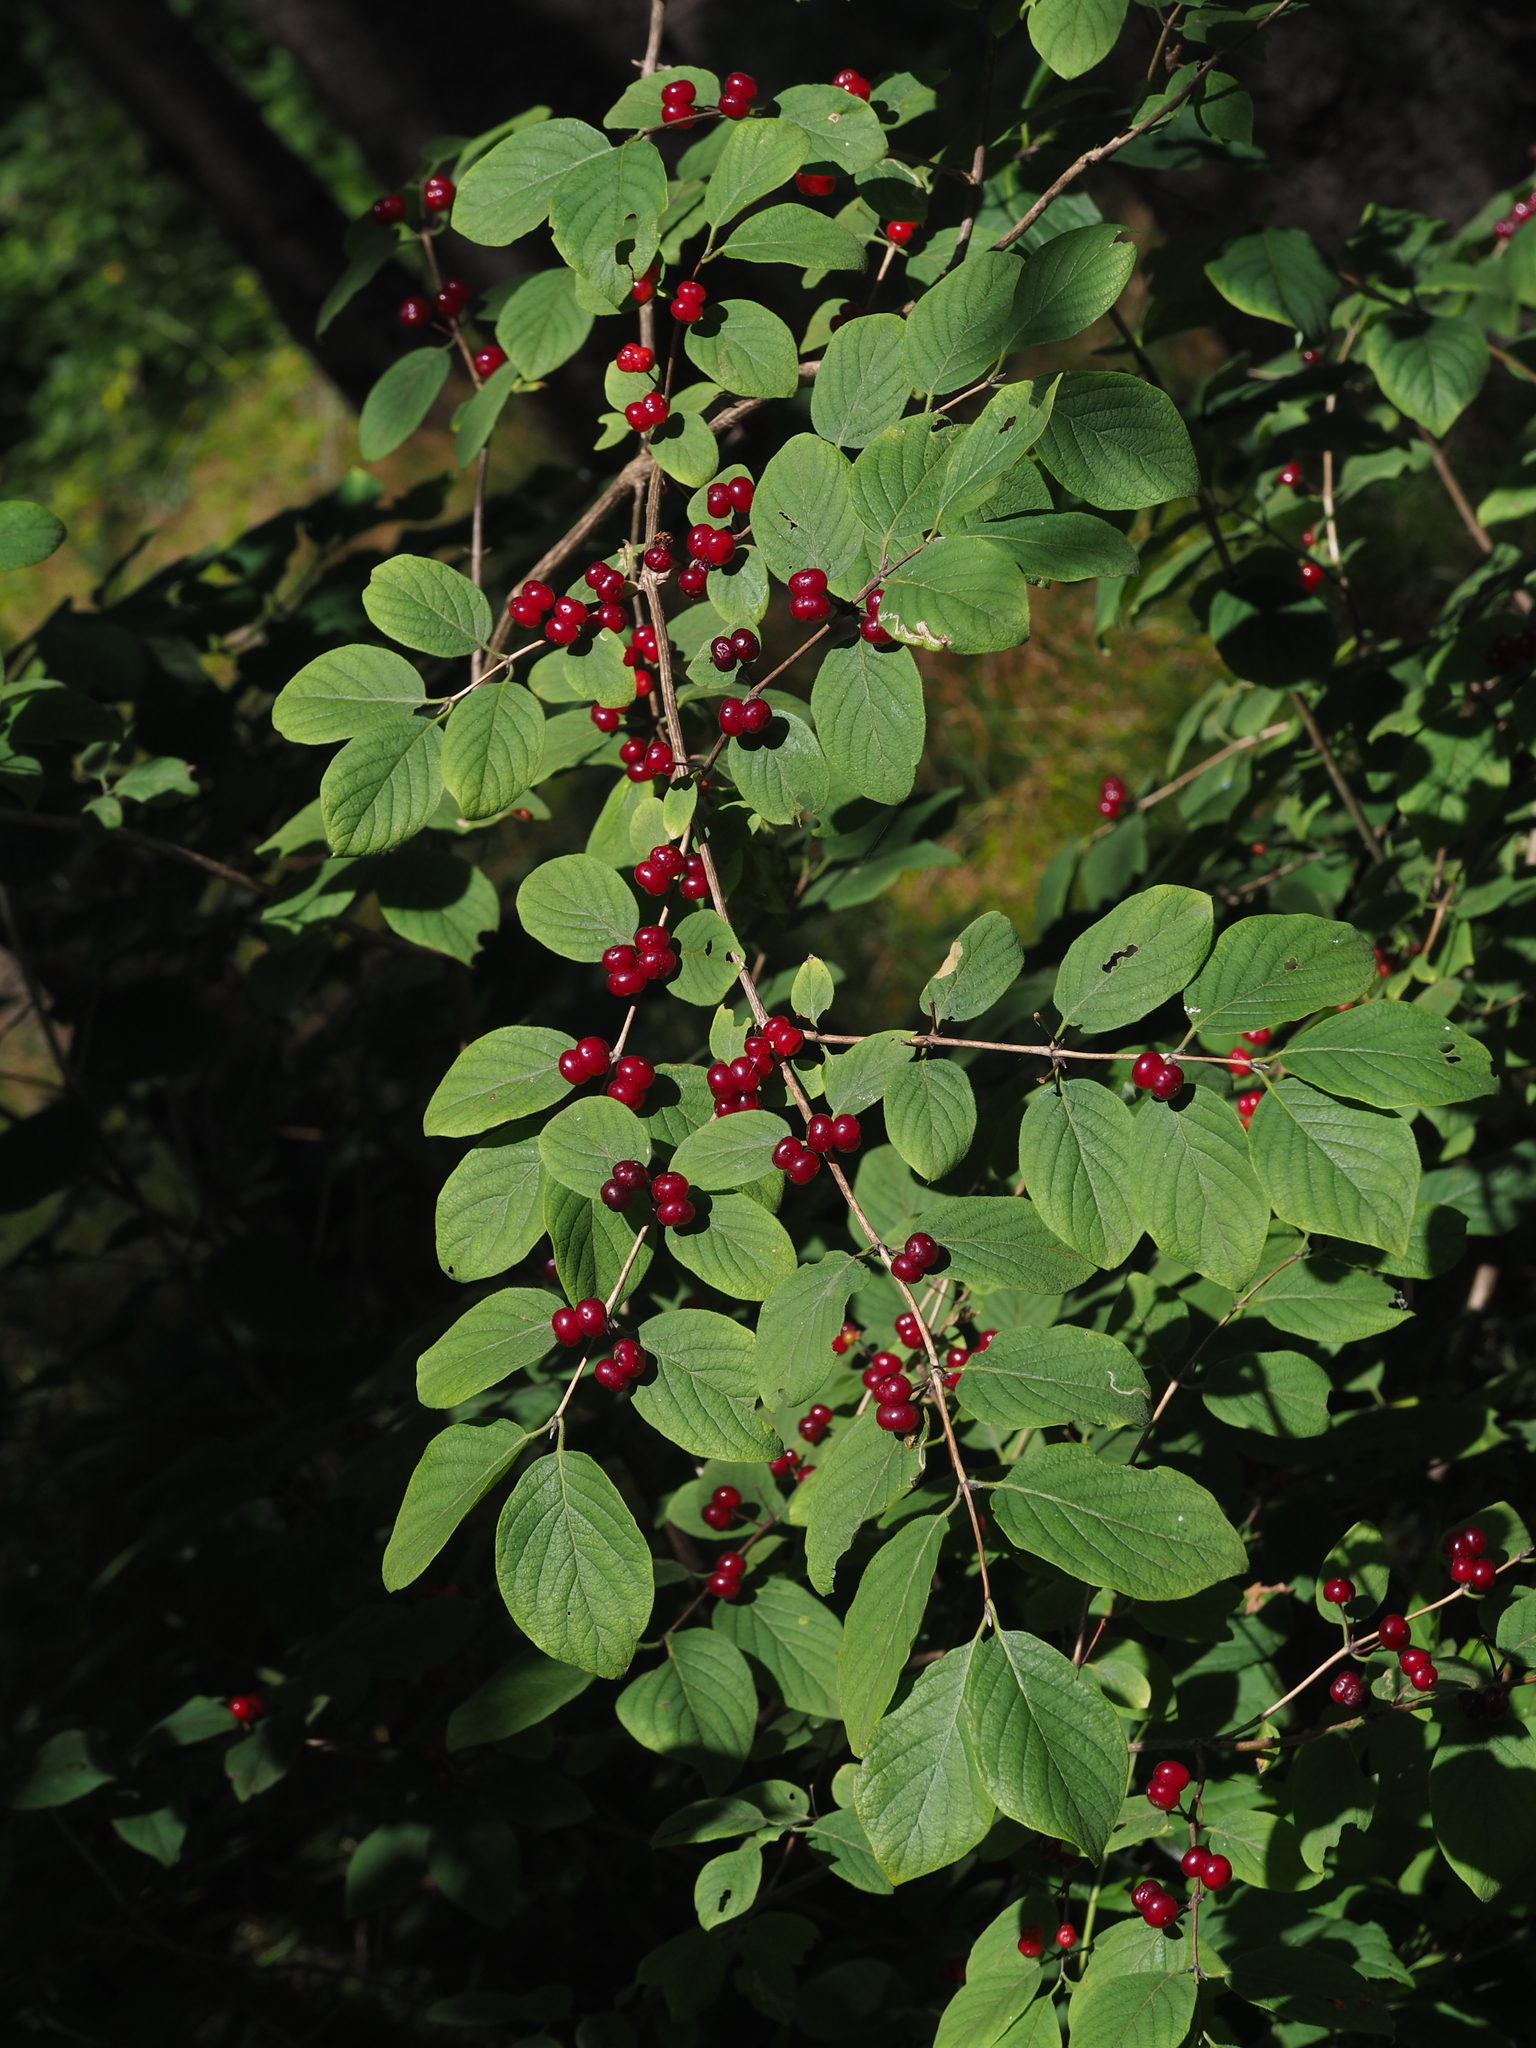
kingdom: Plantae
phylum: Tracheophyta
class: Magnoliopsida
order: Dipsacales
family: Caprifoliaceae
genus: Lonicera
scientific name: Lonicera xylosteum
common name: Fly honeysuckle
